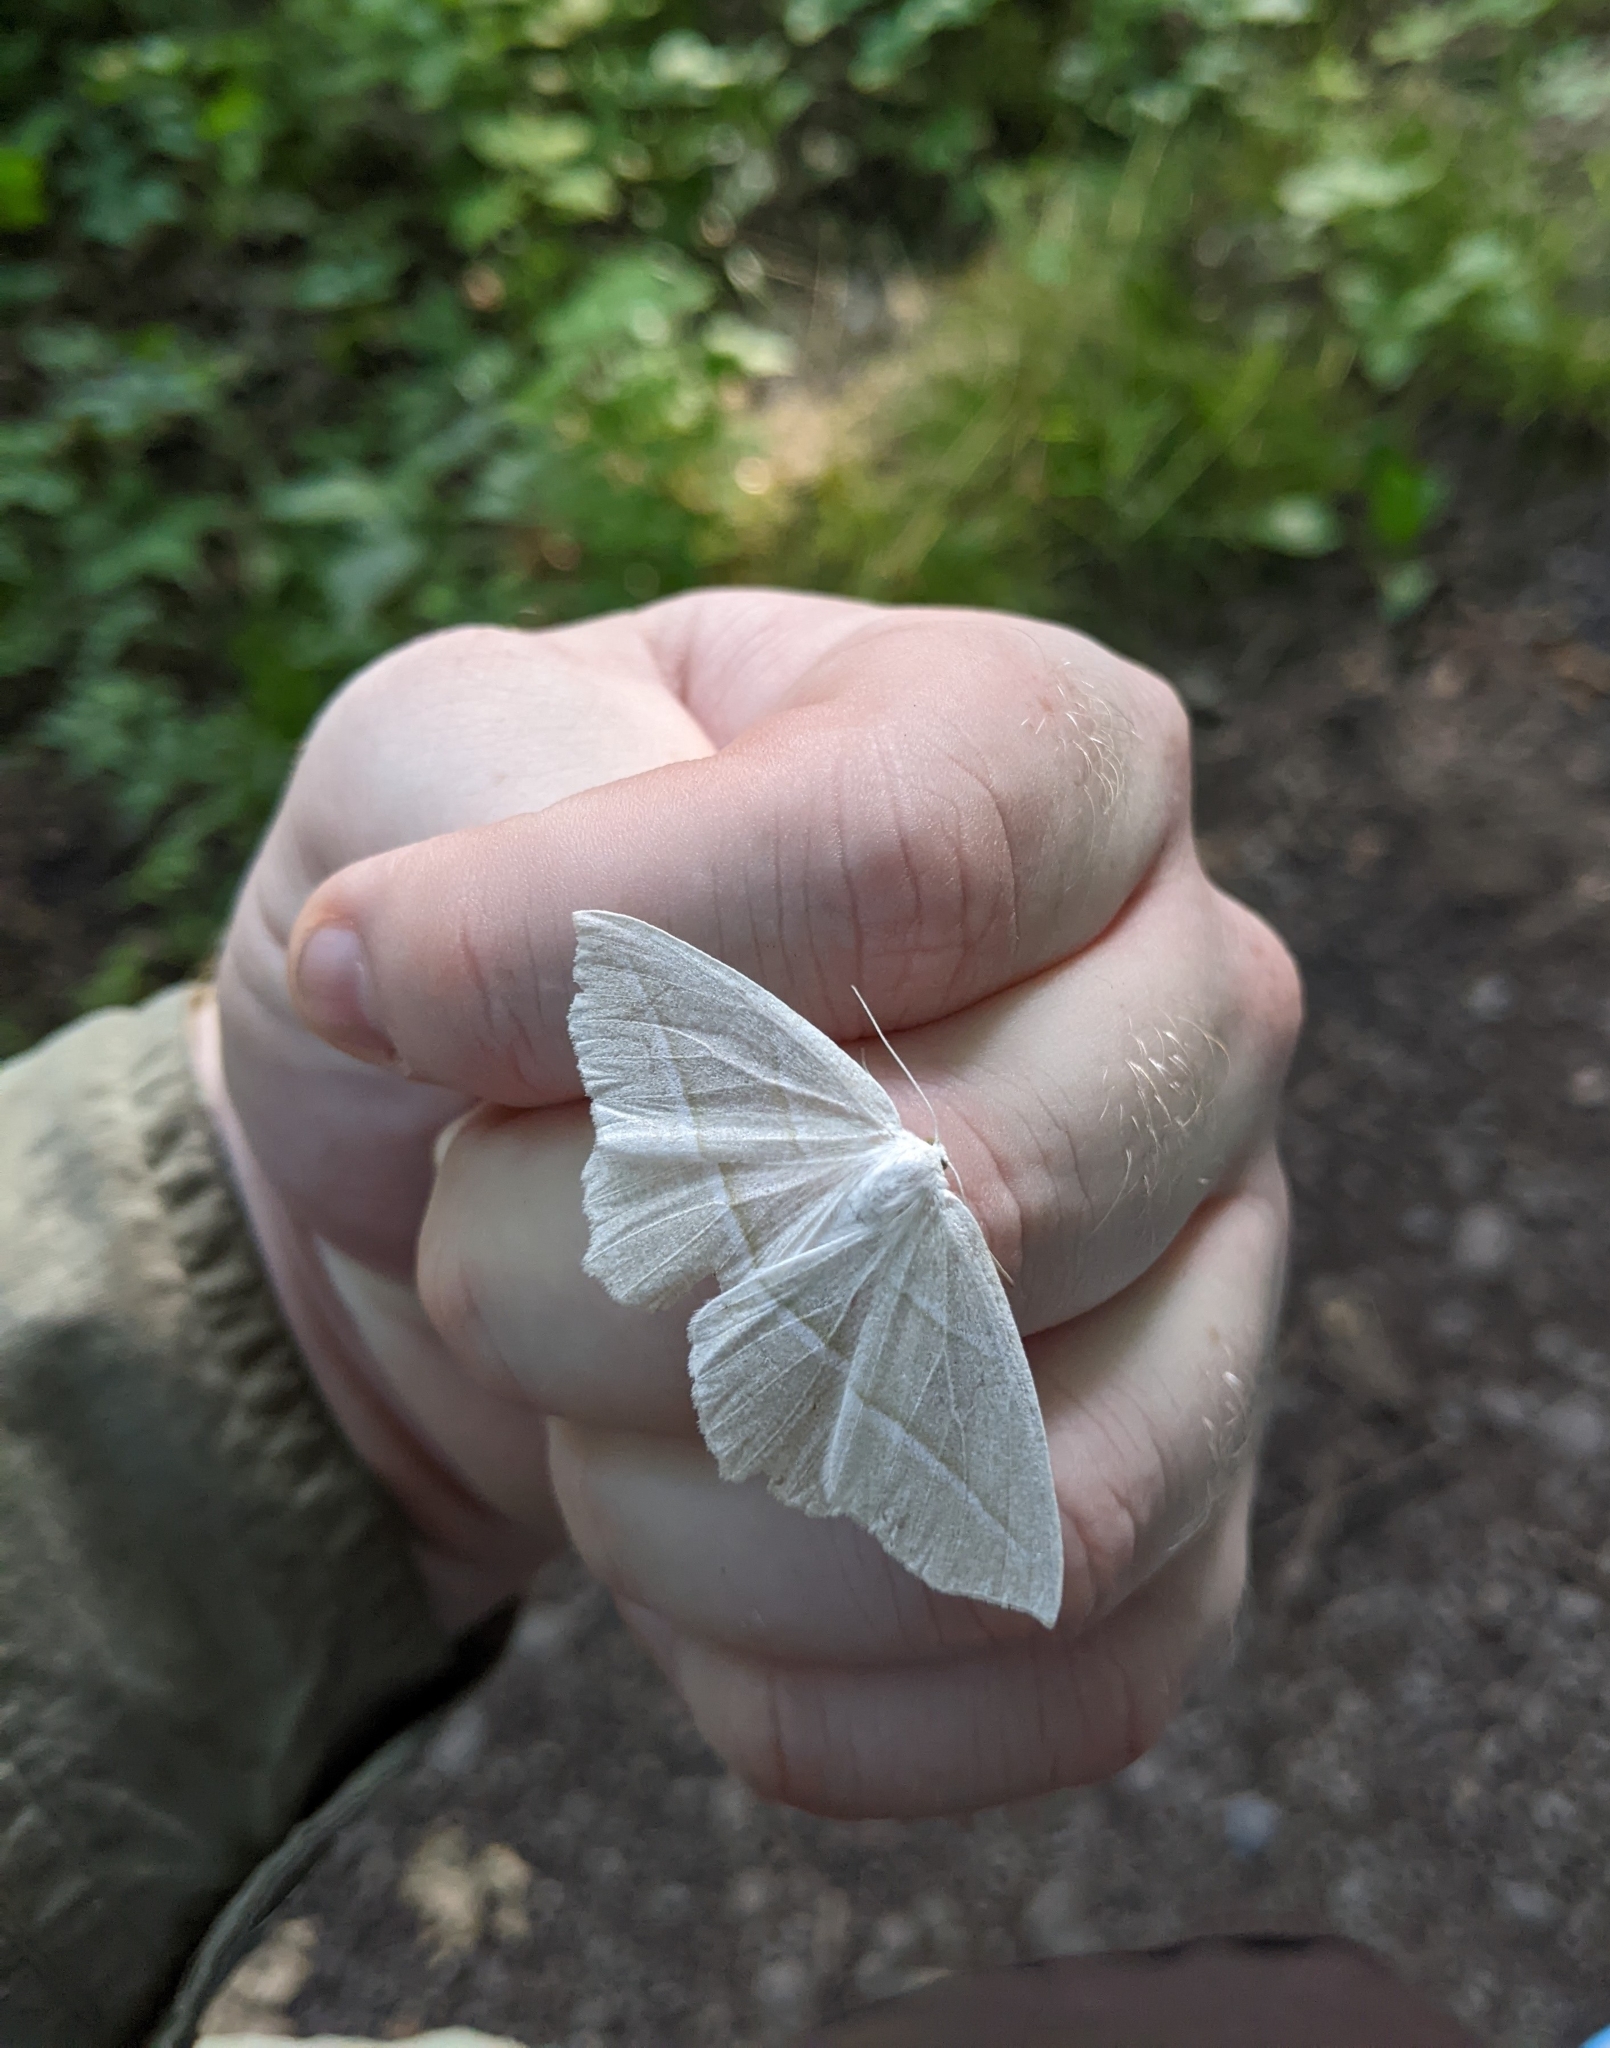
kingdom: Animalia
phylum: Arthropoda
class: Insecta
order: Lepidoptera
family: Geometridae
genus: Campaea
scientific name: Campaea perlata
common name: Fringed looper
